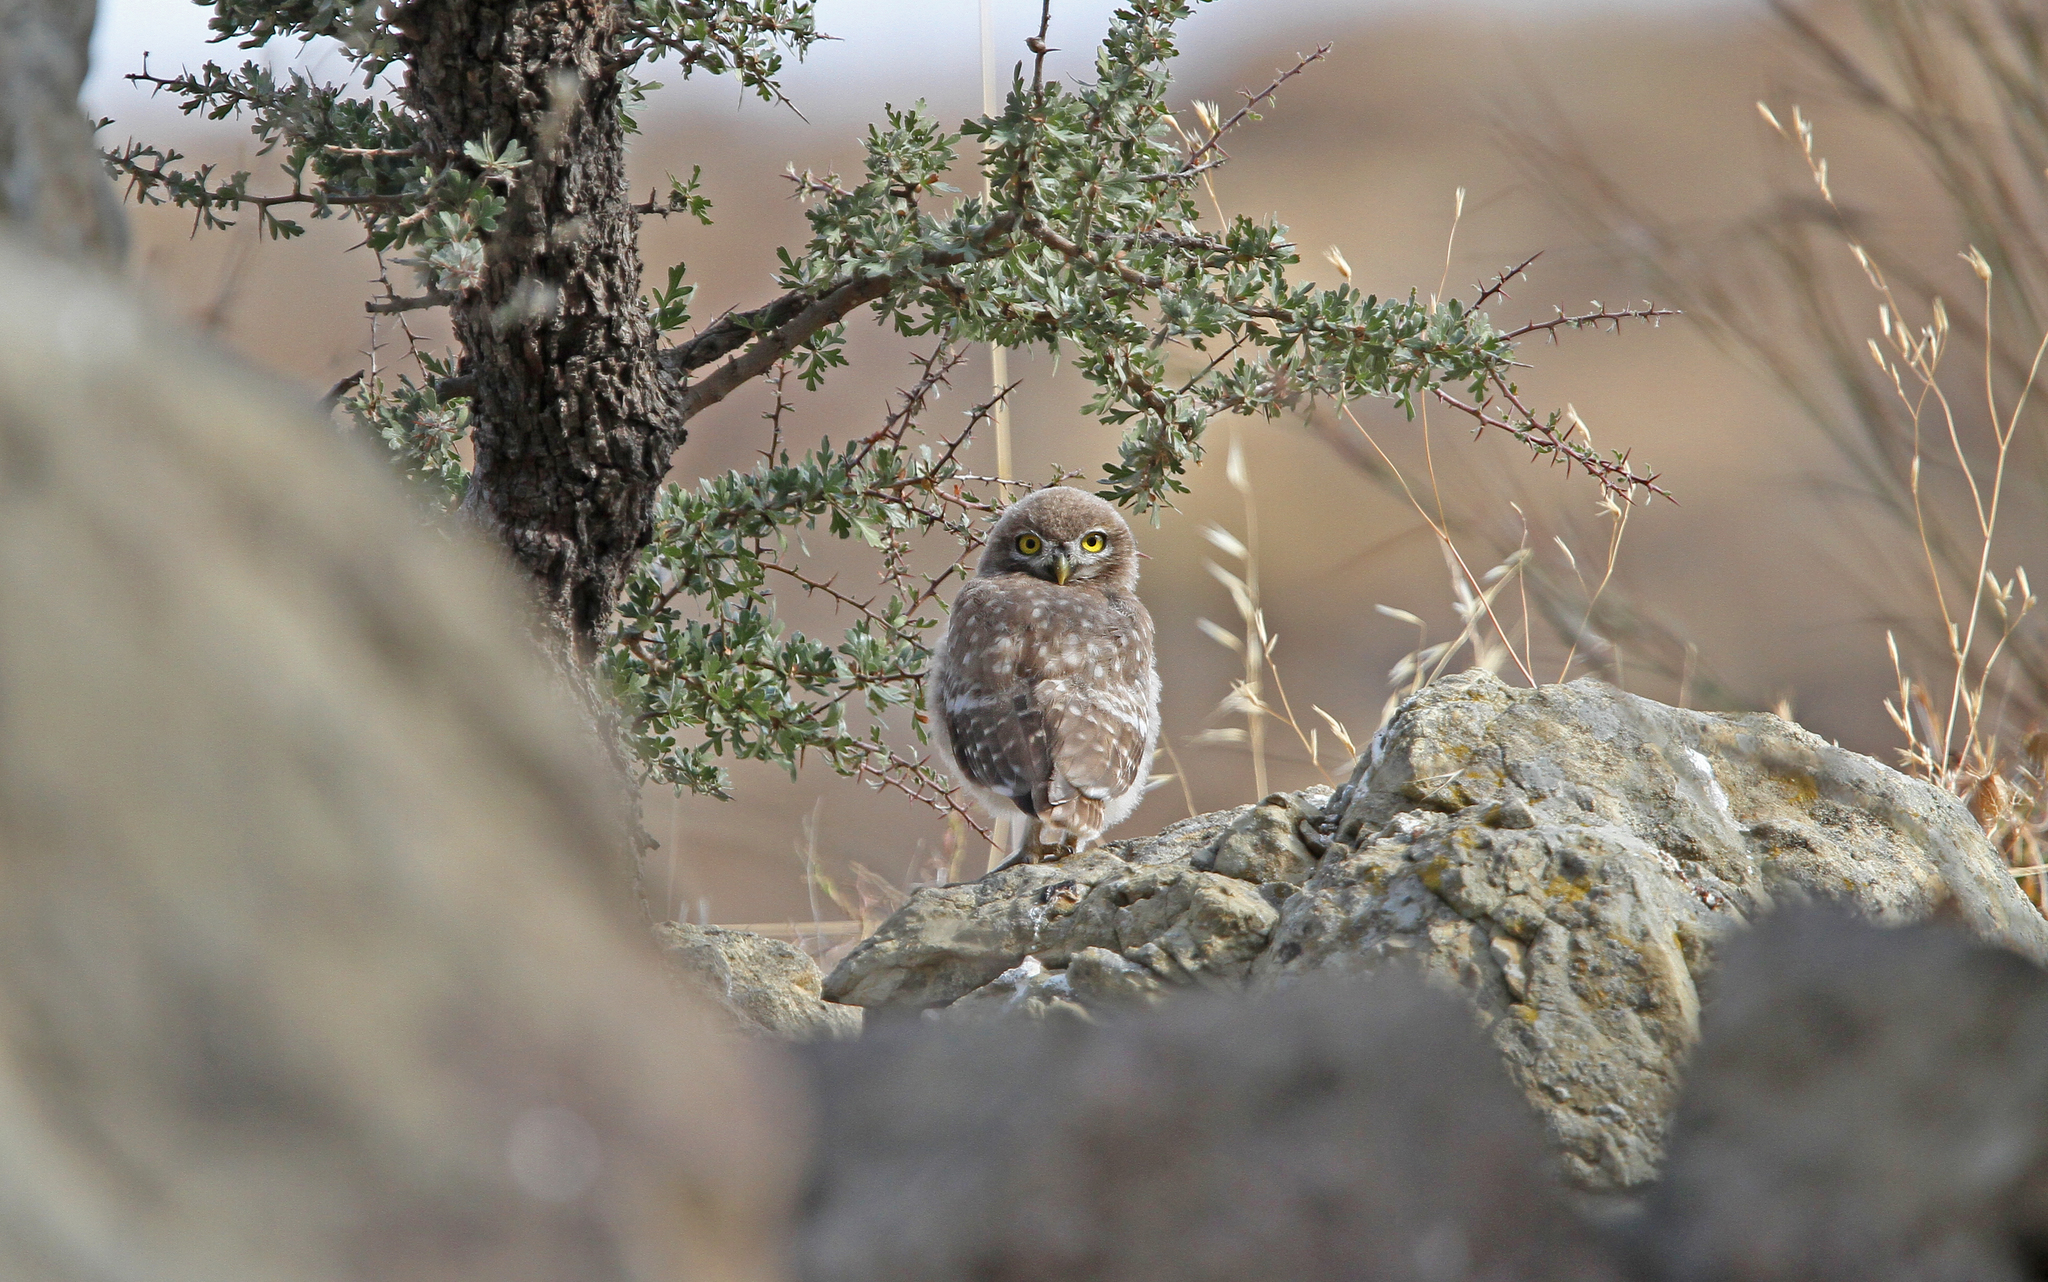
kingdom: Animalia
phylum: Chordata
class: Aves
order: Strigiformes
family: Strigidae
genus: Athene
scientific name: Athene noctua
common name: Little owl
